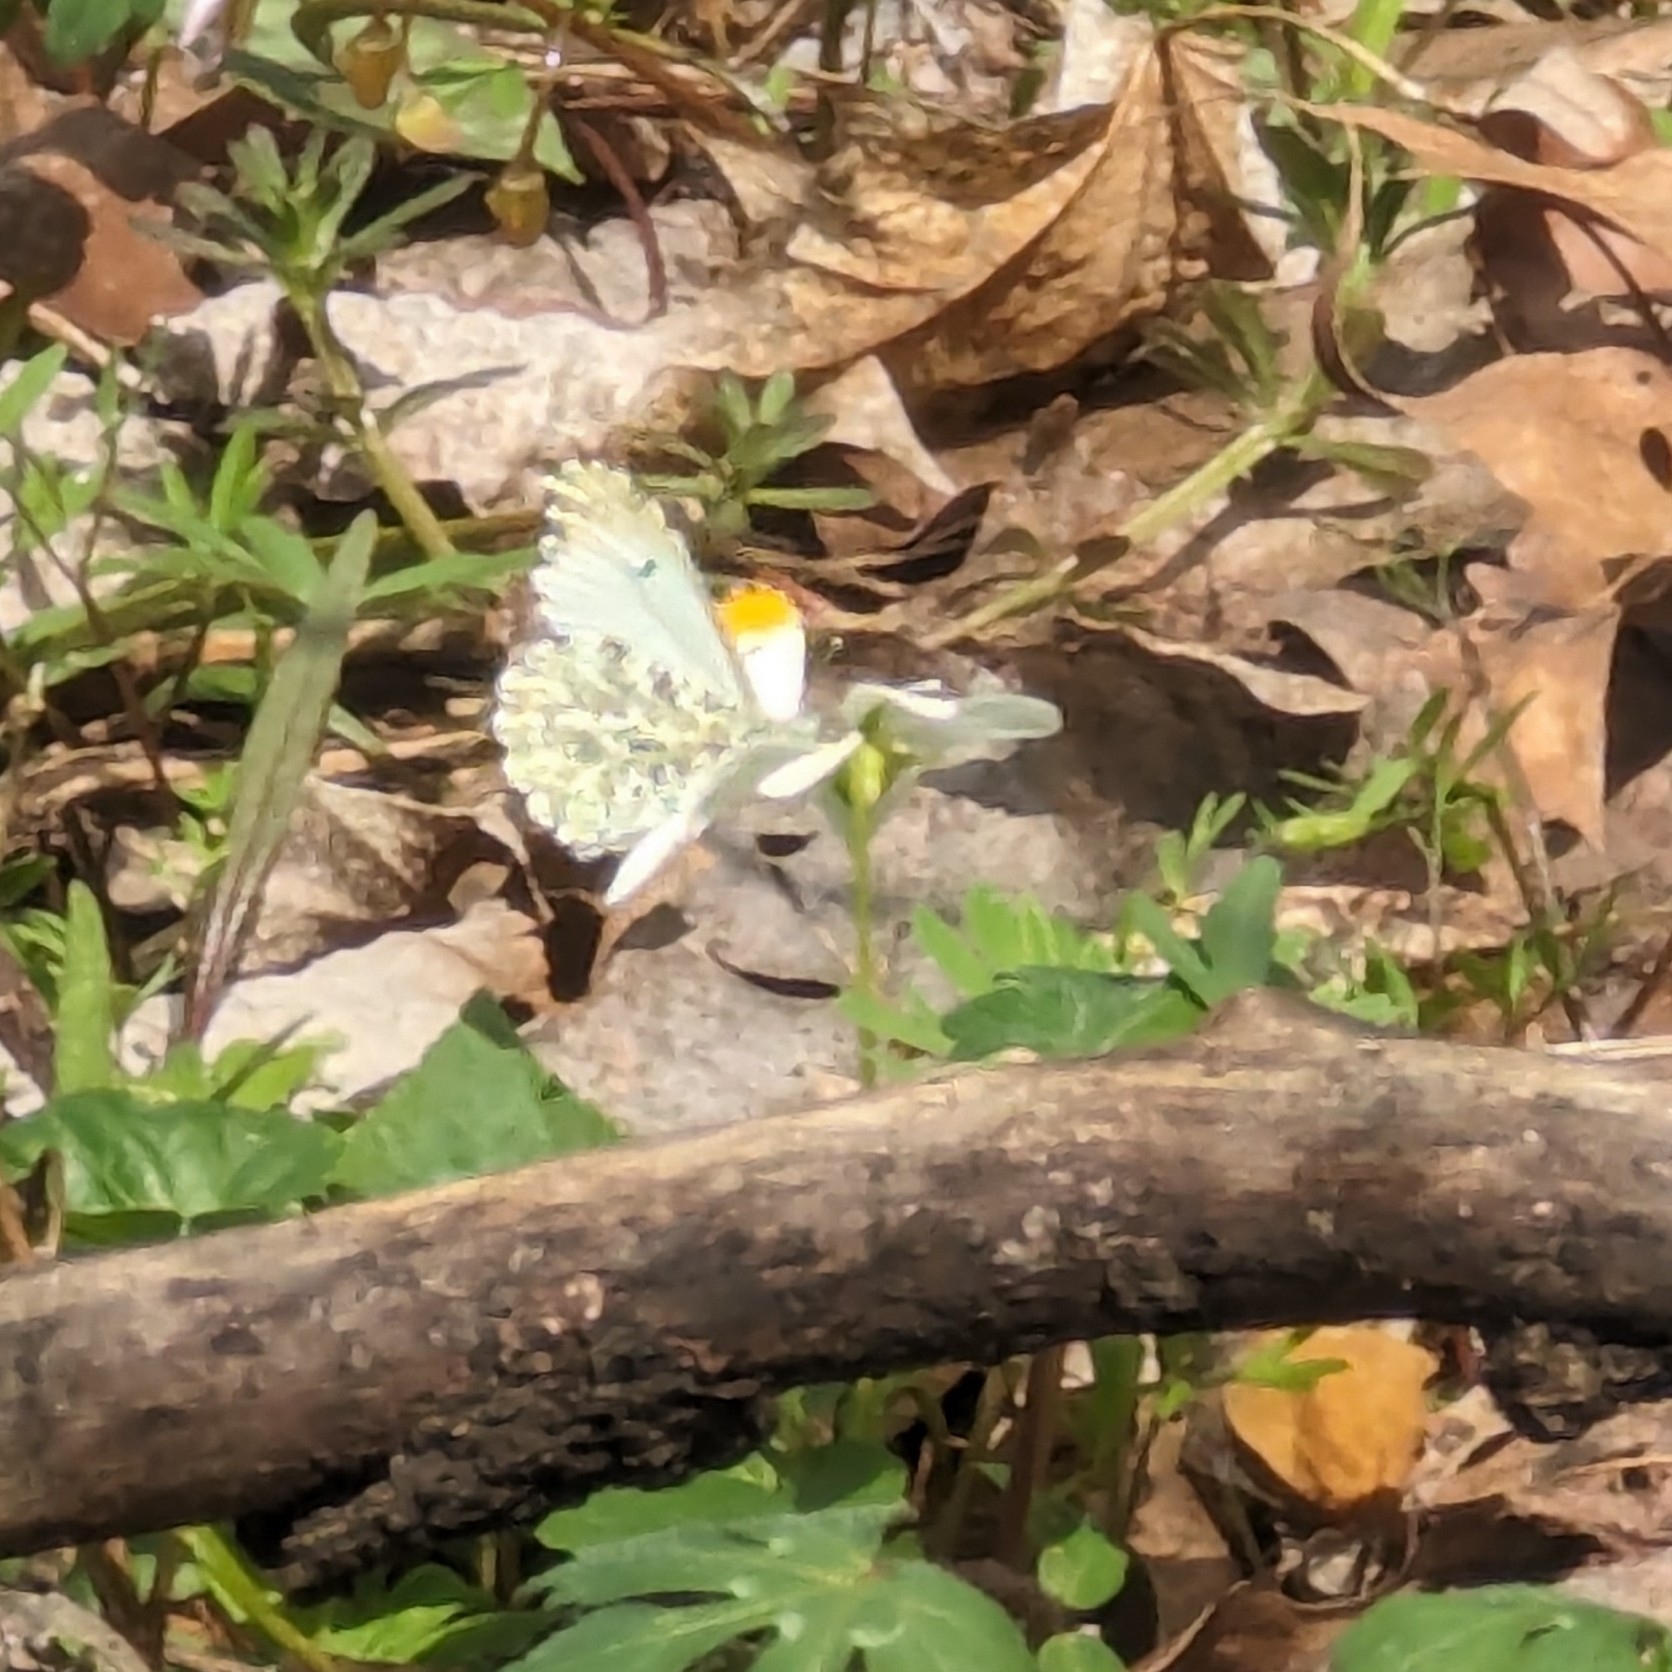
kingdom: Animalia
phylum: Arthropoda
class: Insecta
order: Lepidoptera
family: Pieridae
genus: Anthocharis
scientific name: Anthocharis midea
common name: Falcate orangetip
